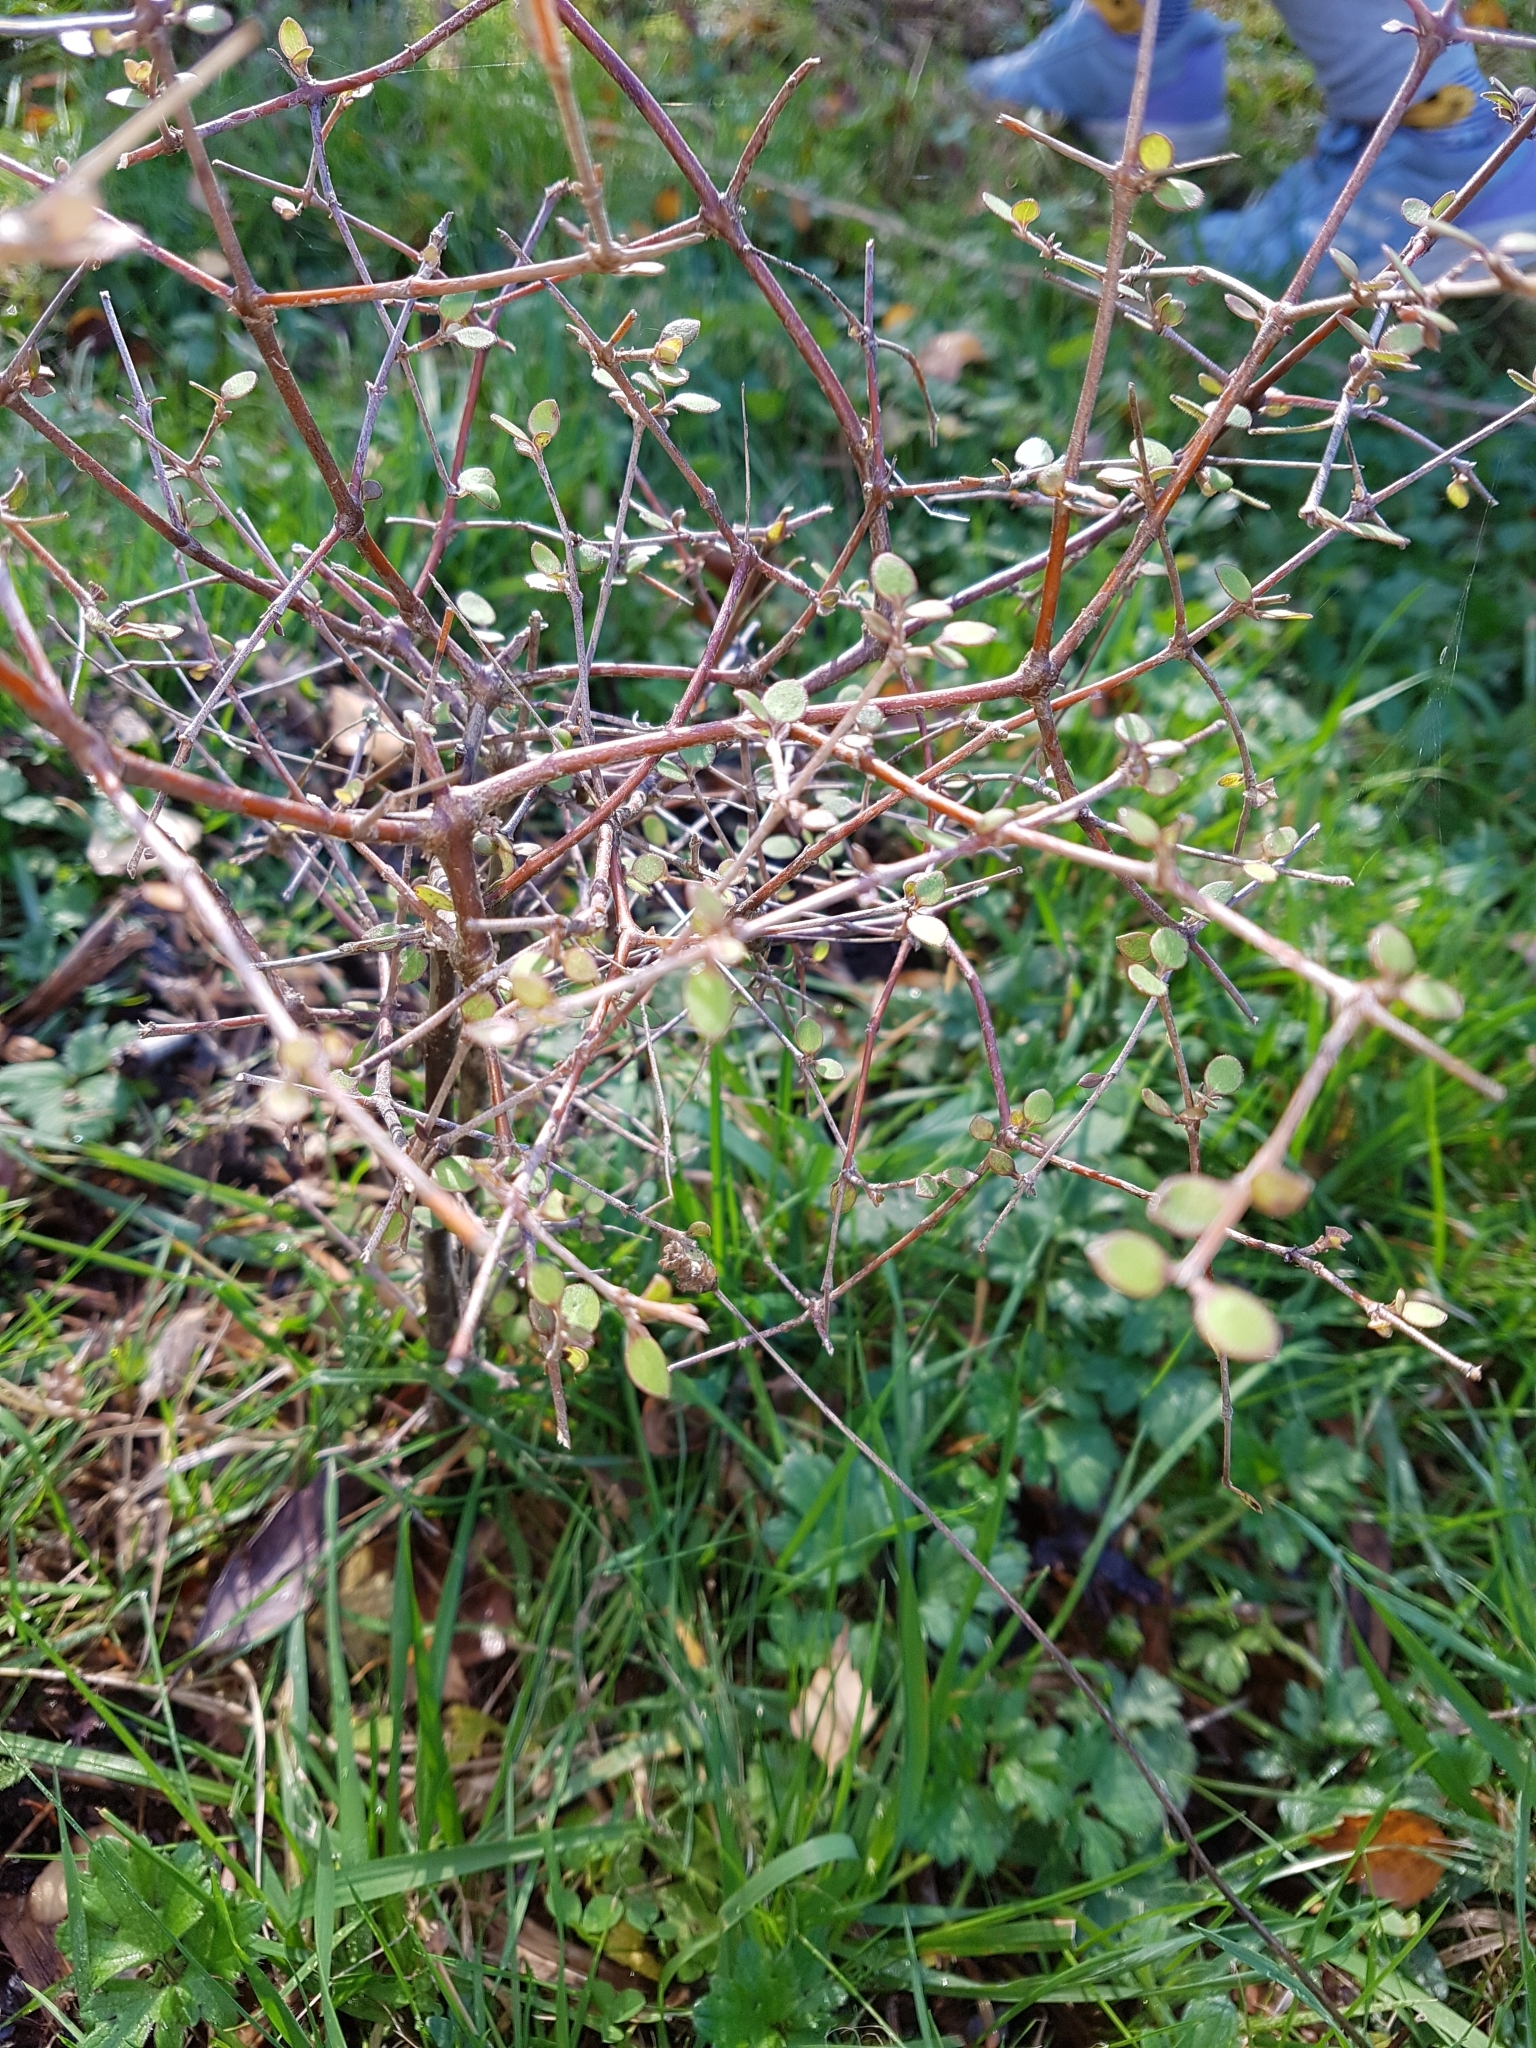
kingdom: Plantae
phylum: Tracheophyta
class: Magnoliopsida
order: Gentianales
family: Rubiaceae
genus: Coprosma
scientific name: Coprosma crassifolia
